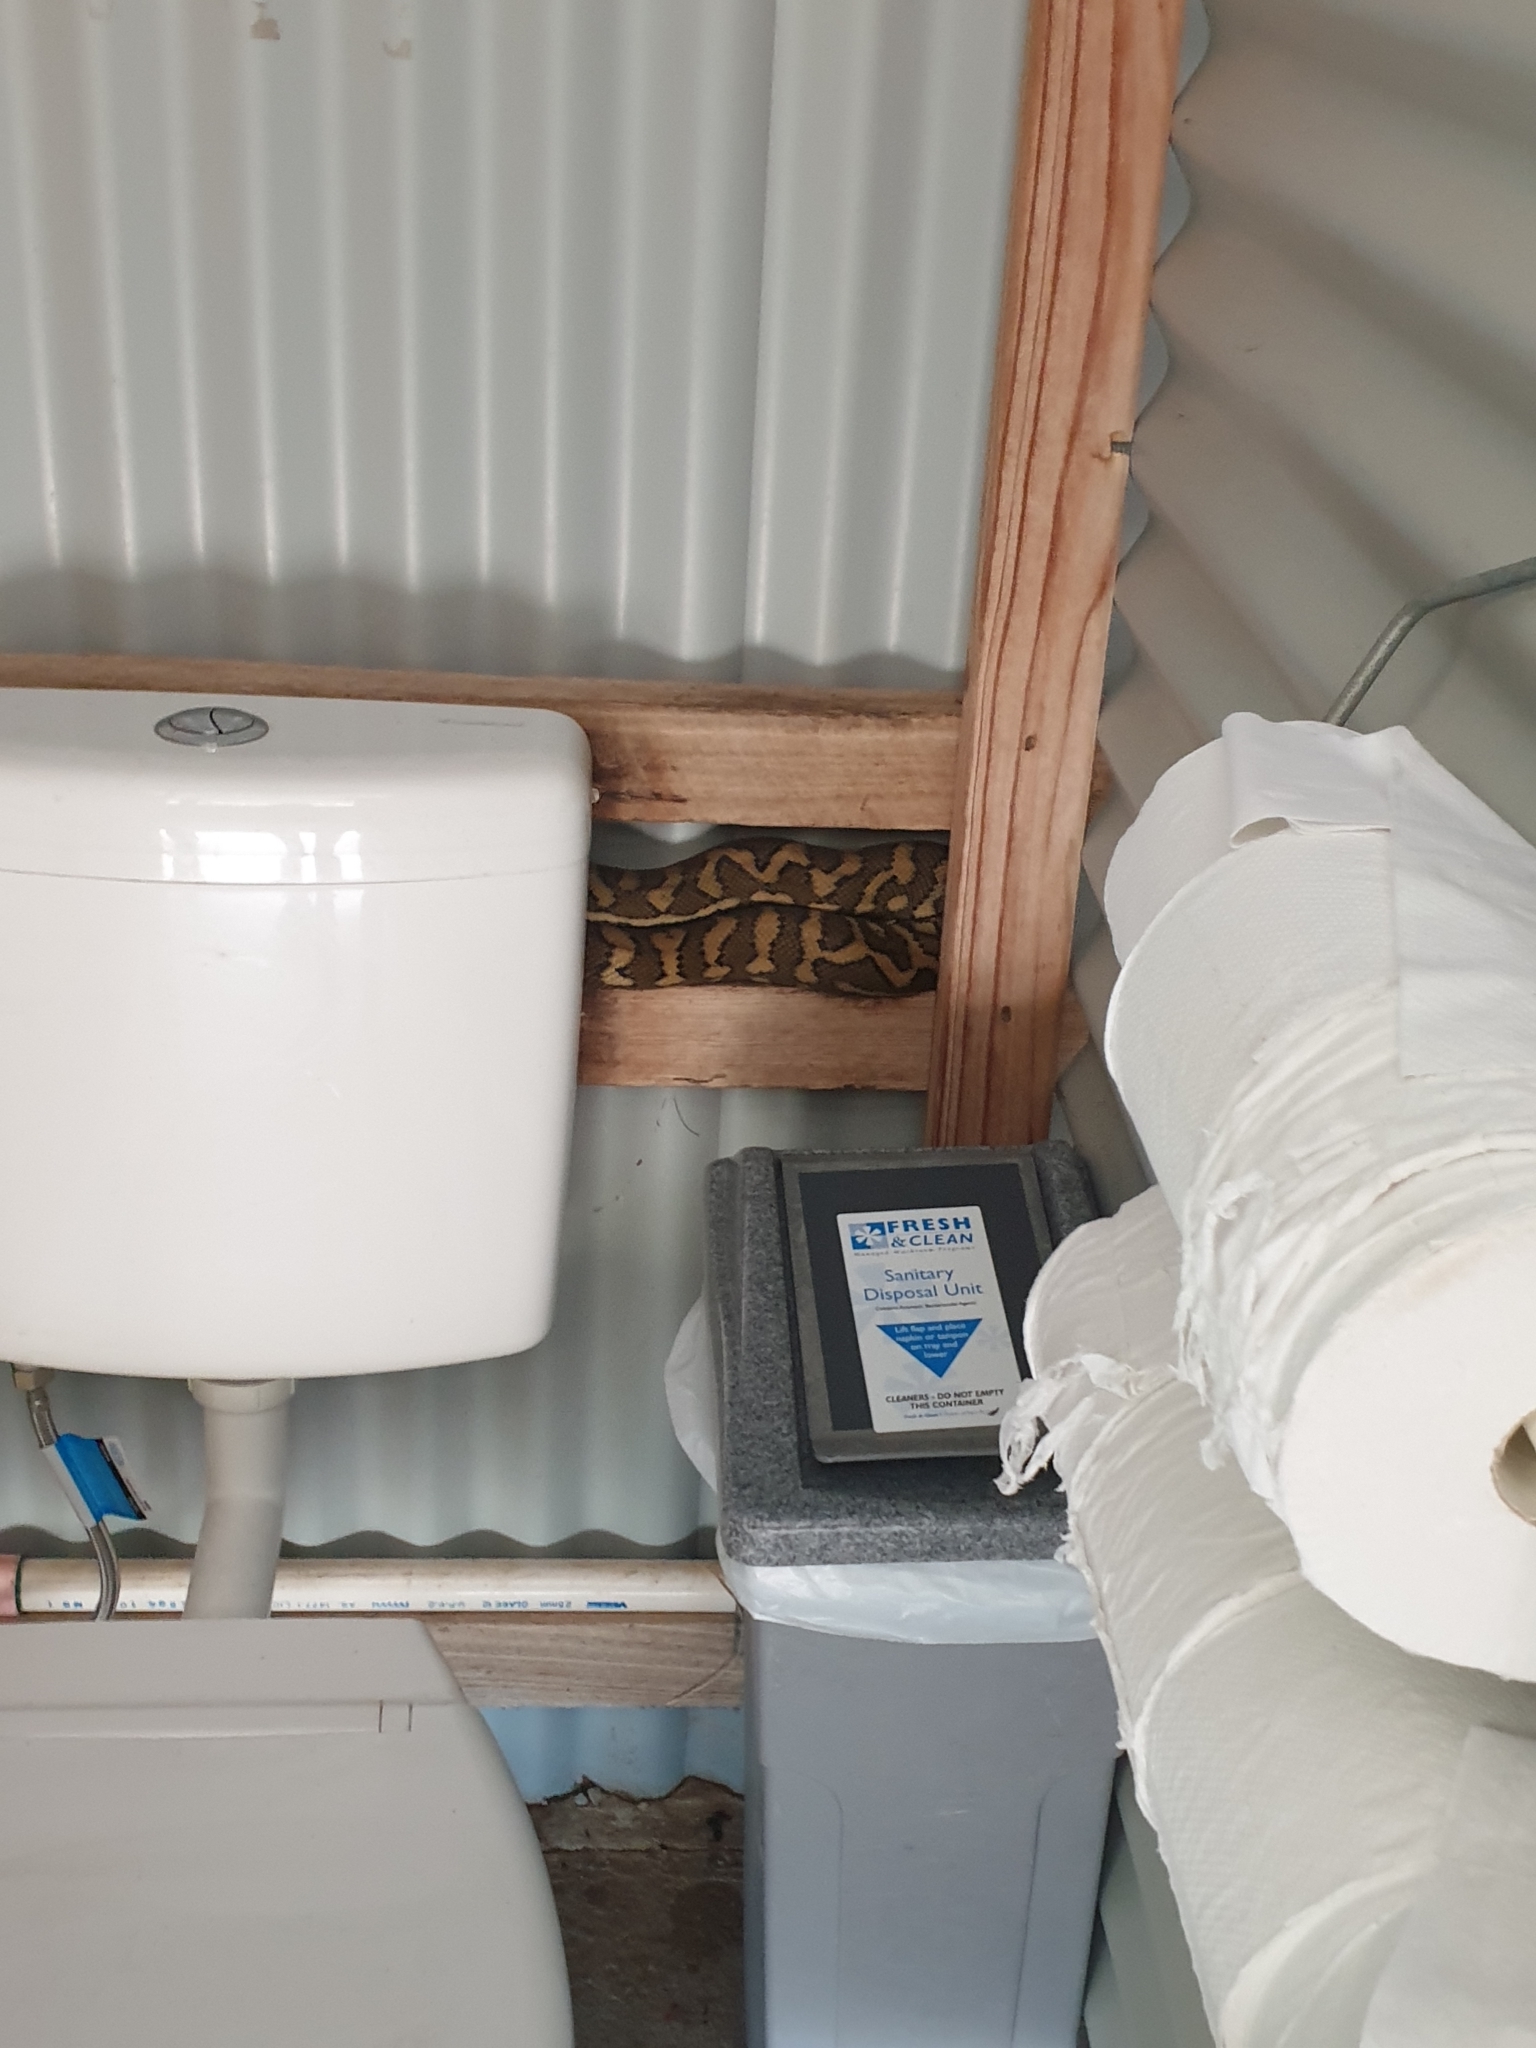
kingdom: Animalia
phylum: Chordata
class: Squamata
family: Pythonidae
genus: Morelia
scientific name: Morelia spilota
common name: Carpet python
